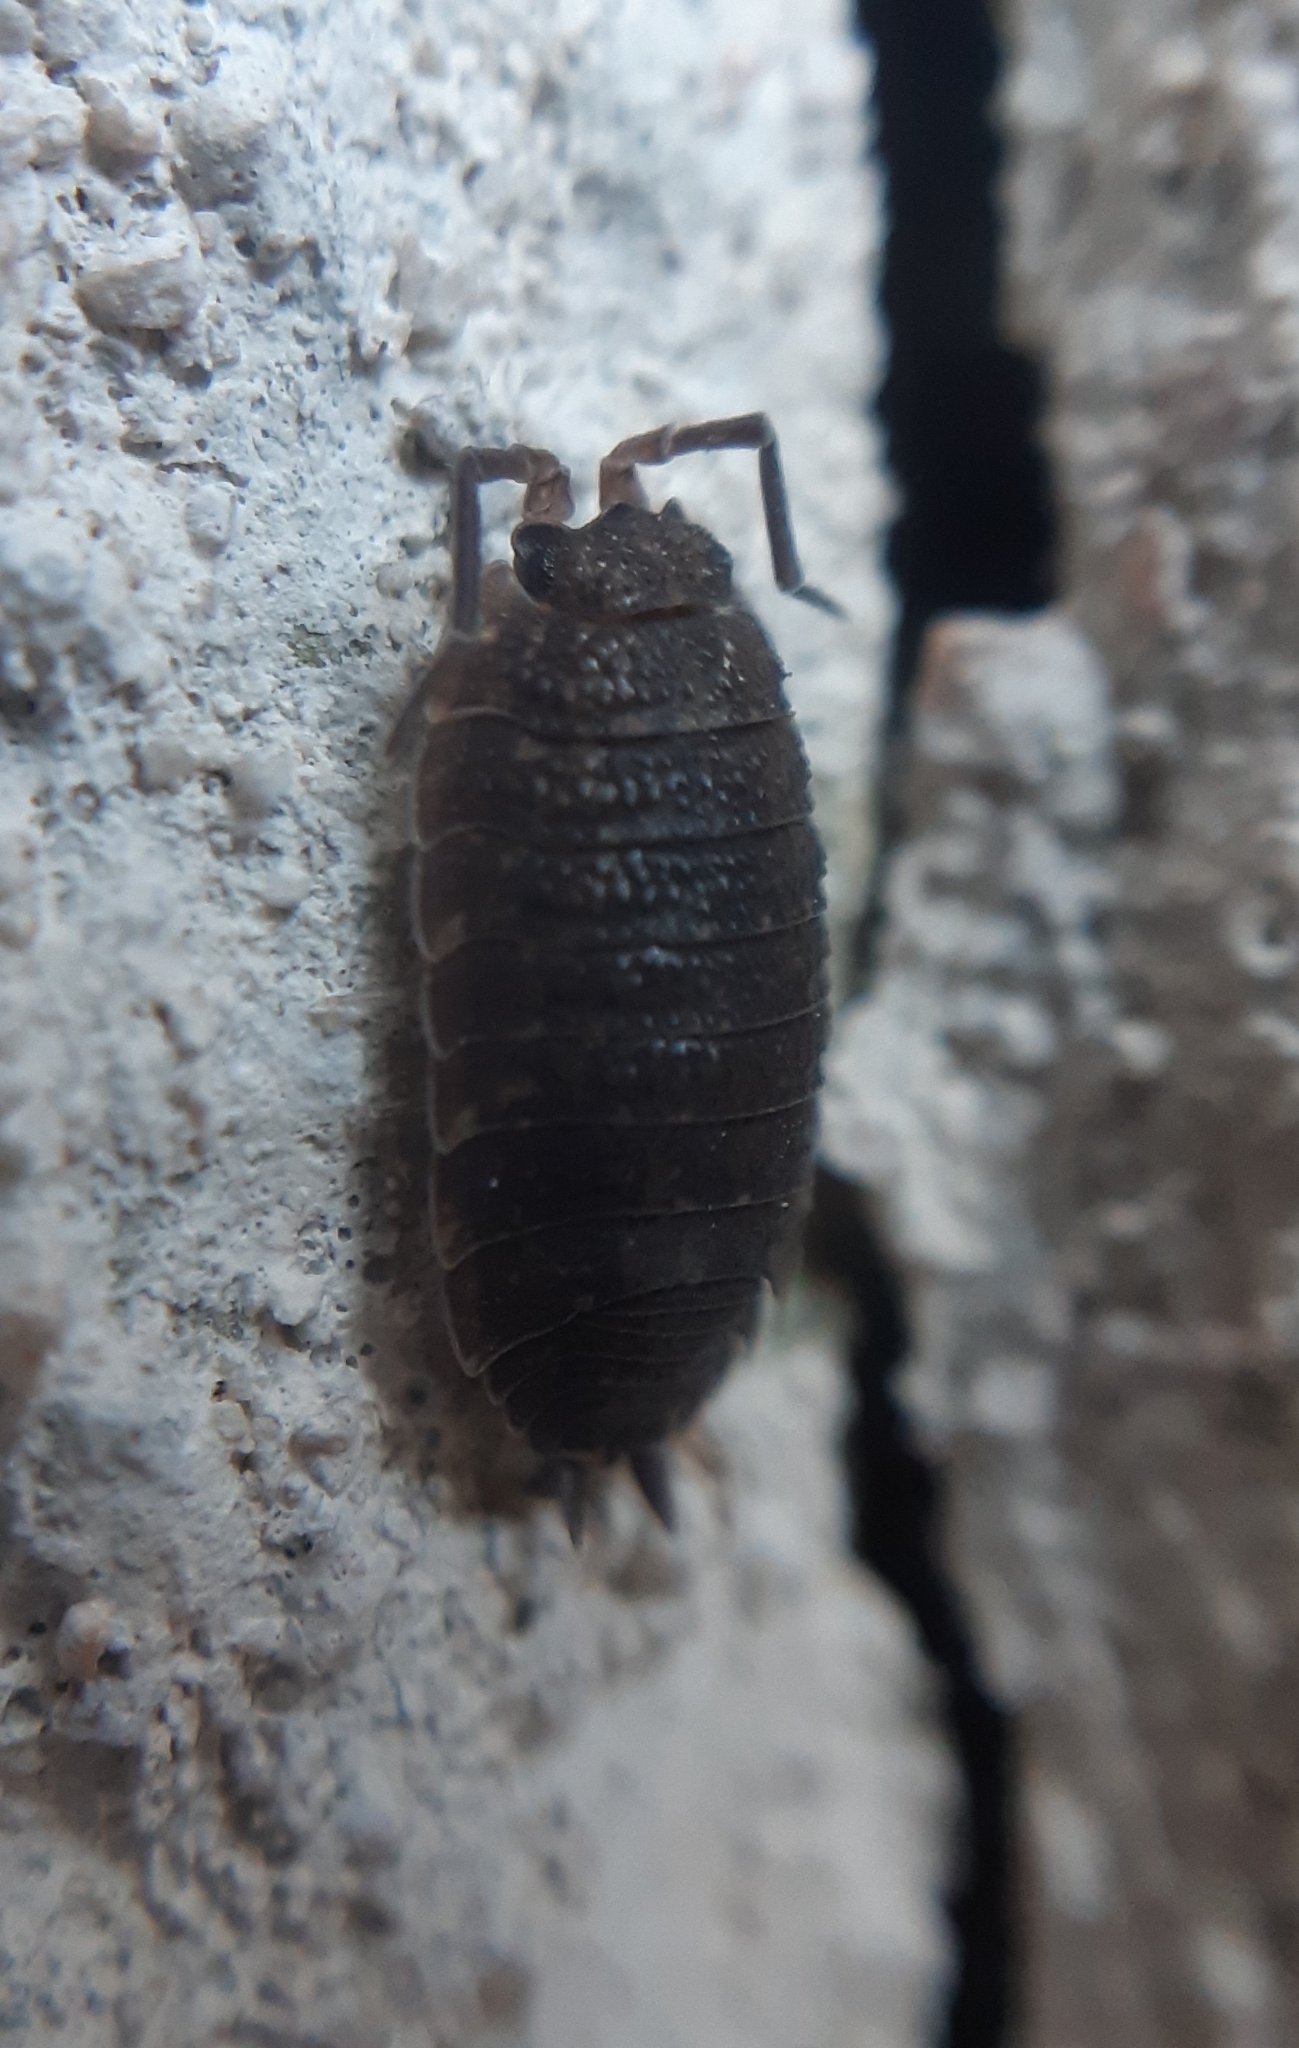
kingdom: Animalia
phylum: Arthropoda
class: Malacostraca
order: Isopoda
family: Porcellionidae
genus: Porcellio
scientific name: Porcellio scaber
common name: Common rough woodlouse
